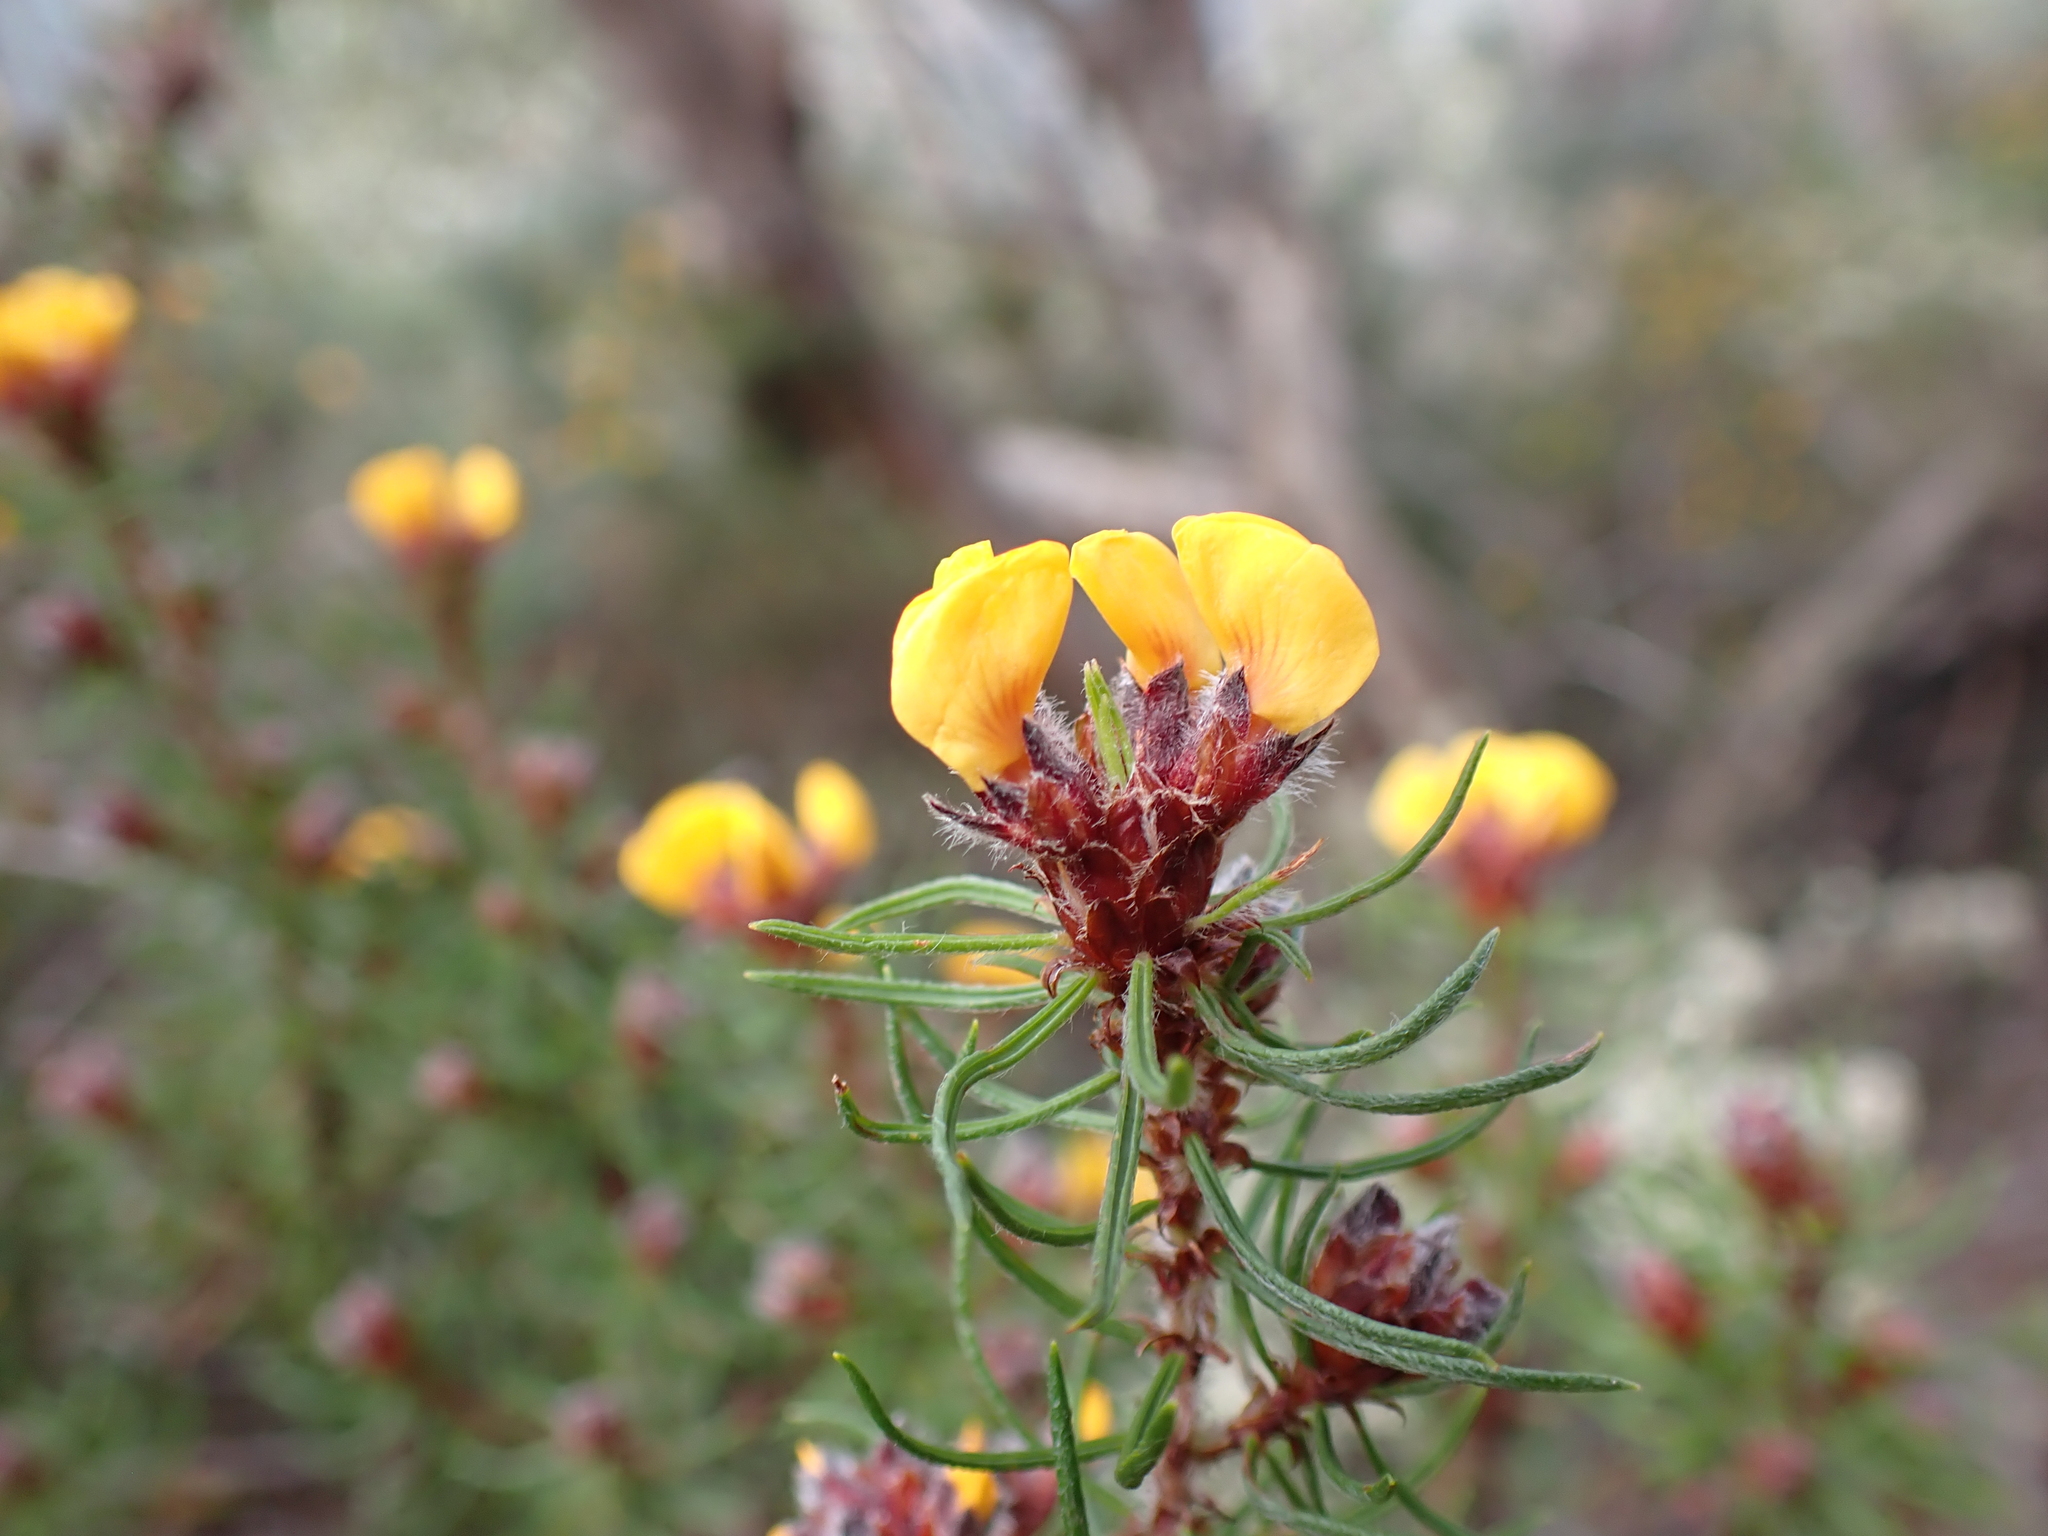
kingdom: Plantae
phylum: Tracheophyta
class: Magnoliopsida
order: Fabales
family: Fabaceae
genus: Pultenaea
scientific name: Pultenaea mollis
